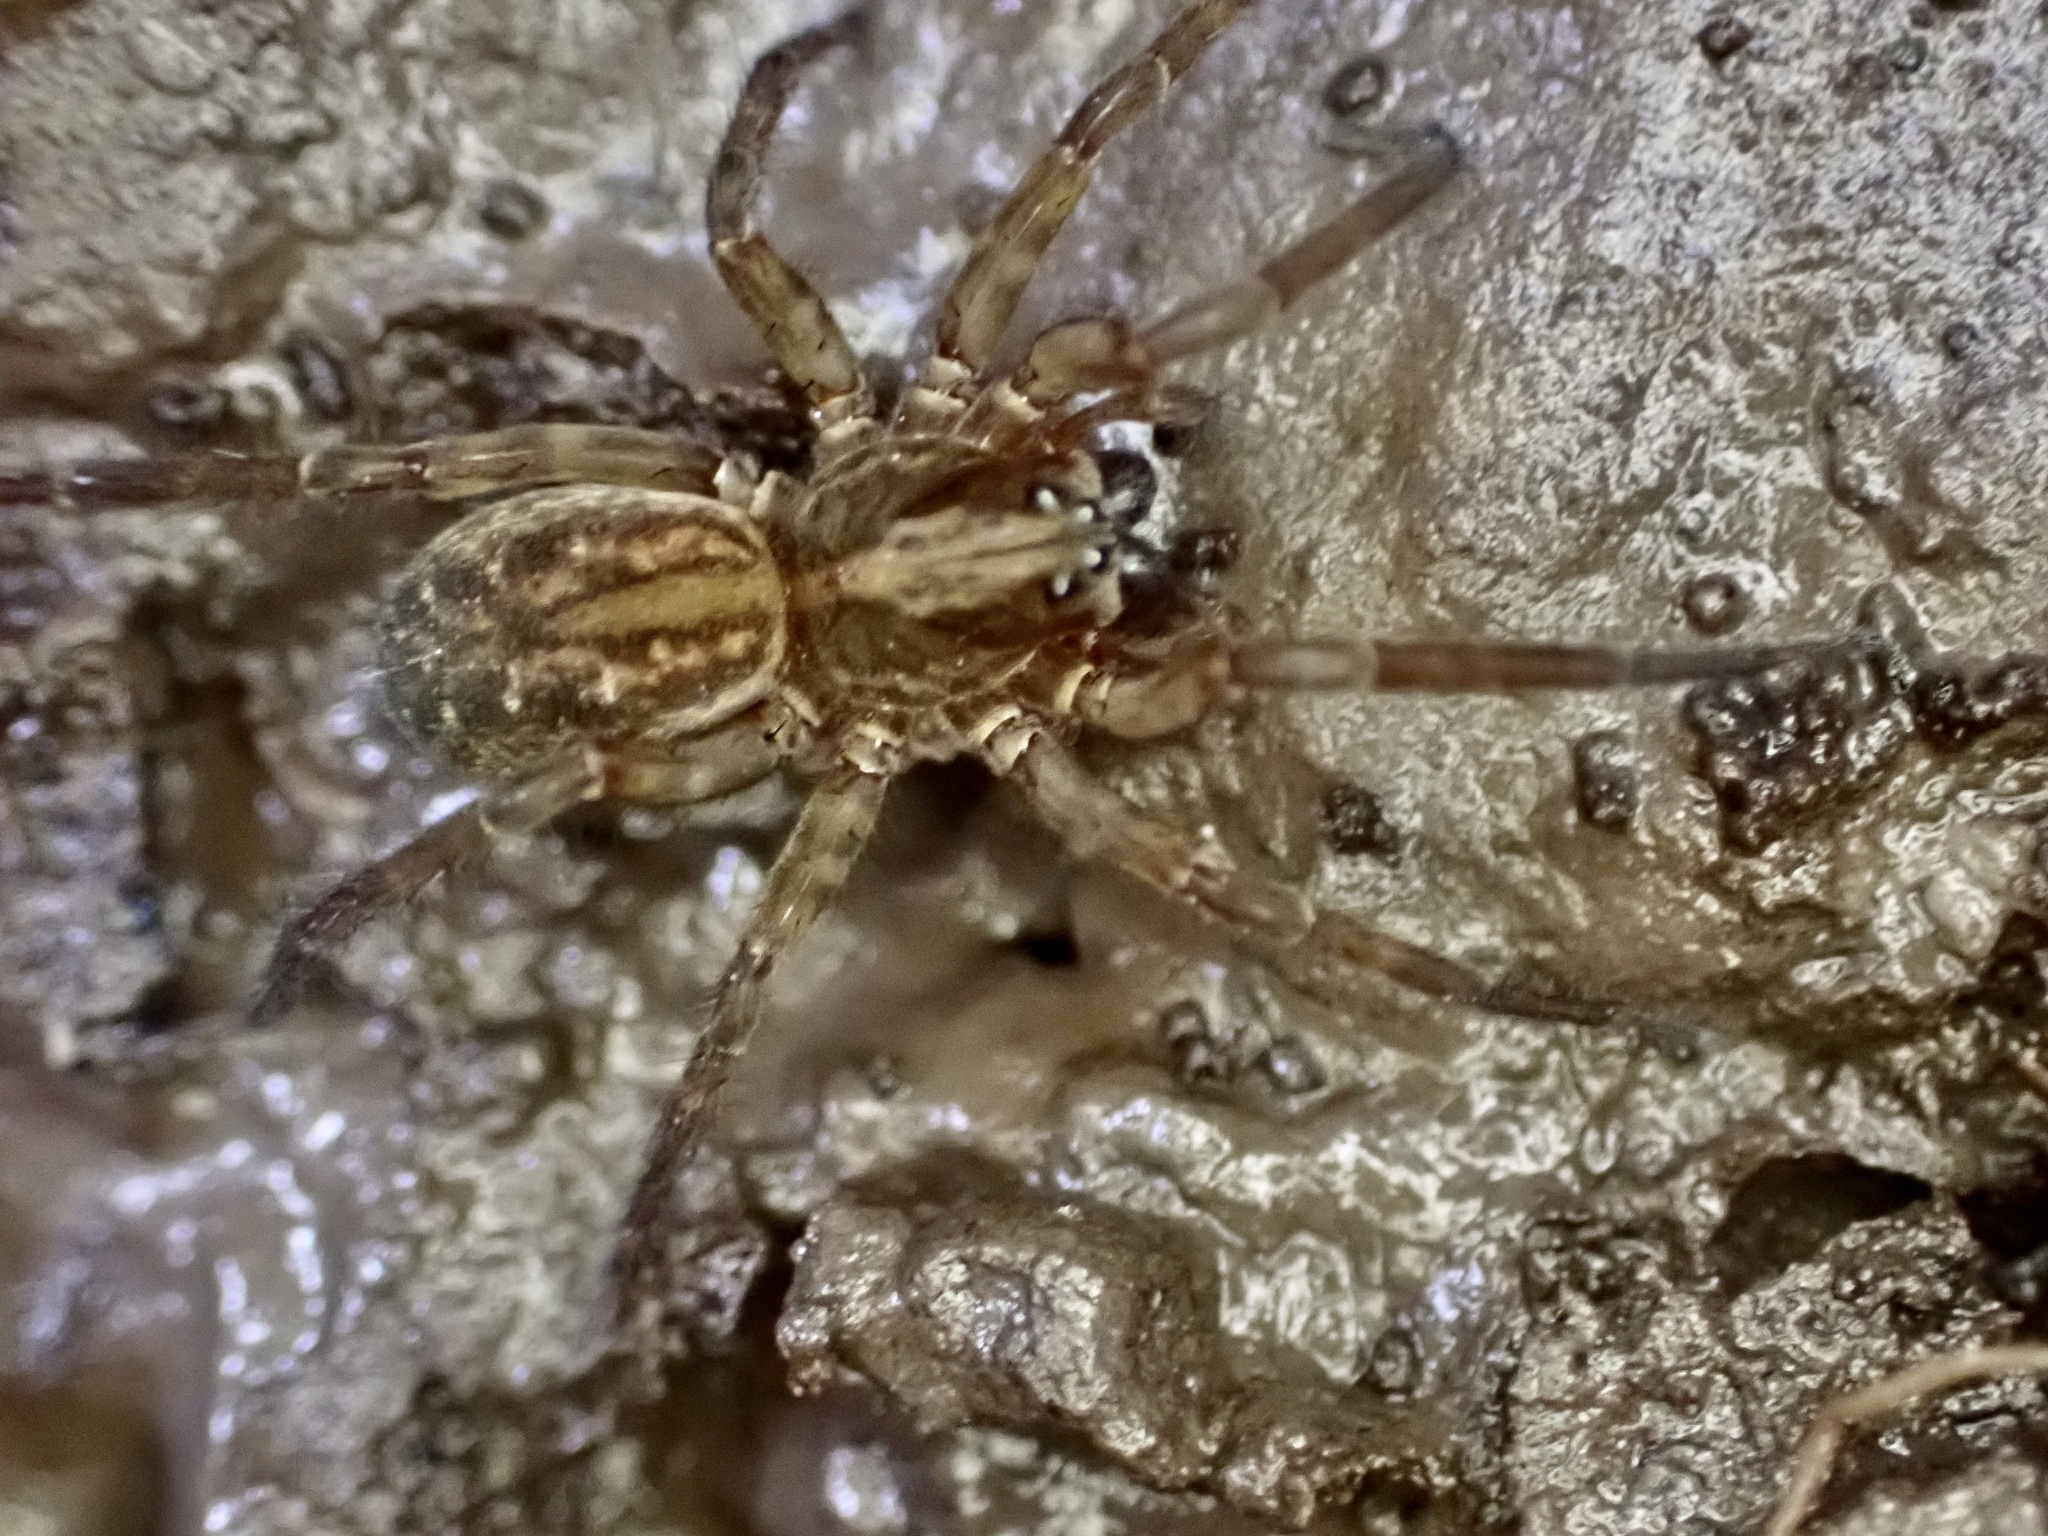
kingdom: Animalia
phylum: Arthropoda
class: Arachnida
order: Araneae
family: Lycosidae
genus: Allotrochosina
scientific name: Allotrochosina schauinslandi
